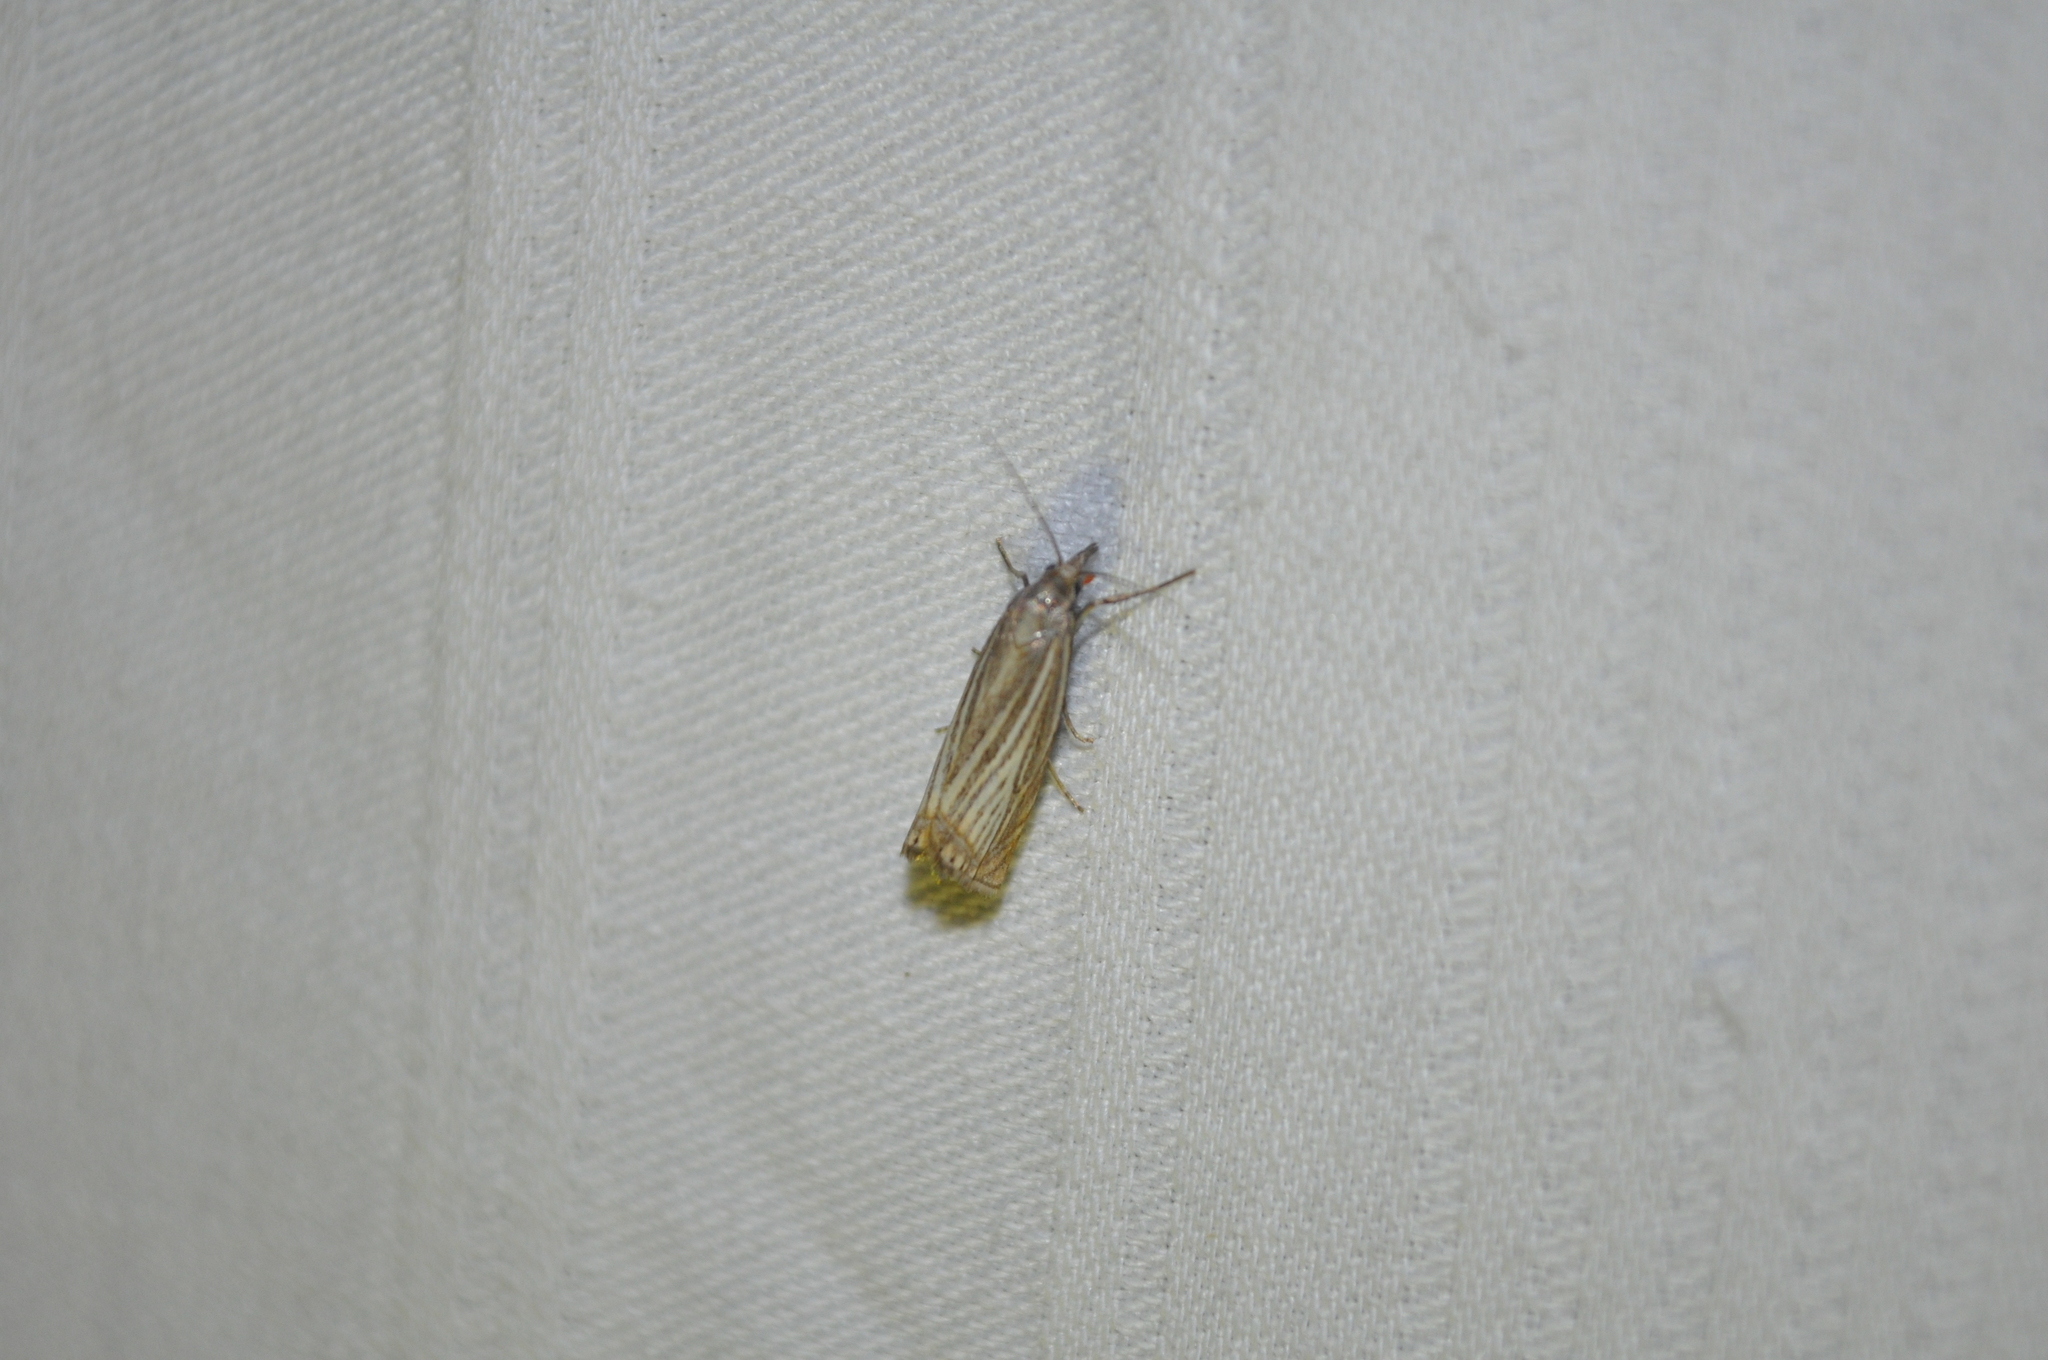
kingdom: Animalia
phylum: Arthropoda
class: Insecta
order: Lepidoptera
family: Crambidae
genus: Chrysoteuchia
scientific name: Chrysoteuchia culmella
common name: Garden grass-veneer
